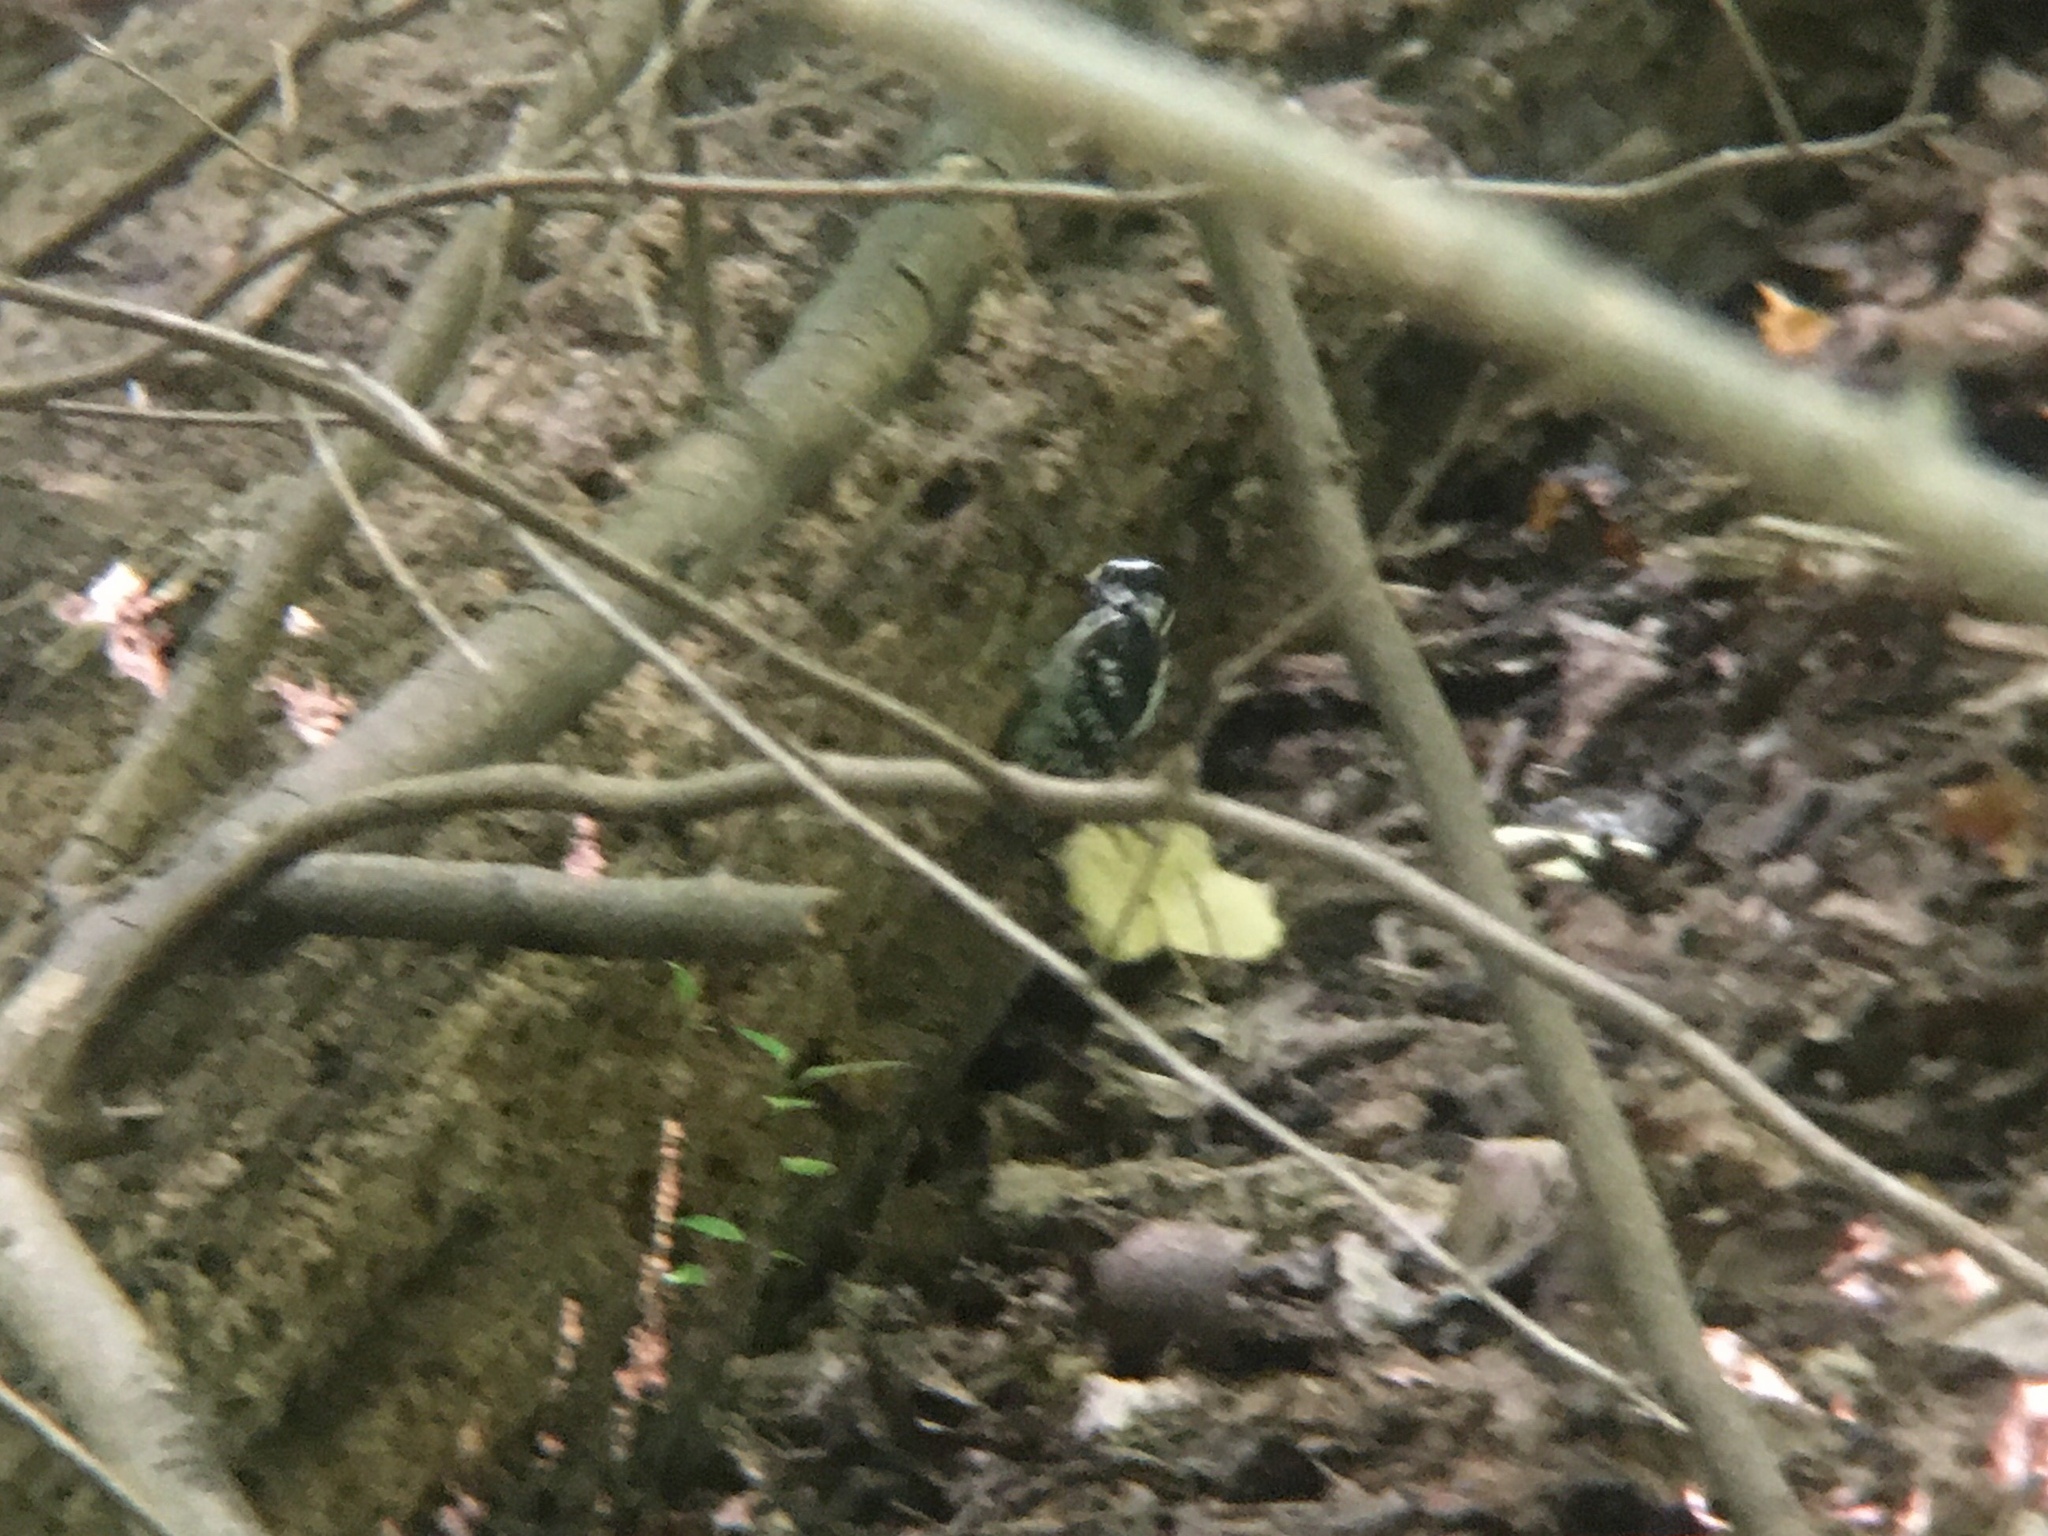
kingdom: Animalia
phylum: Chordata
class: Aves
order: Piciformes
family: Picidae
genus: Dryobates
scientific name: Dryobates pubescens
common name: Downy woodpecker
